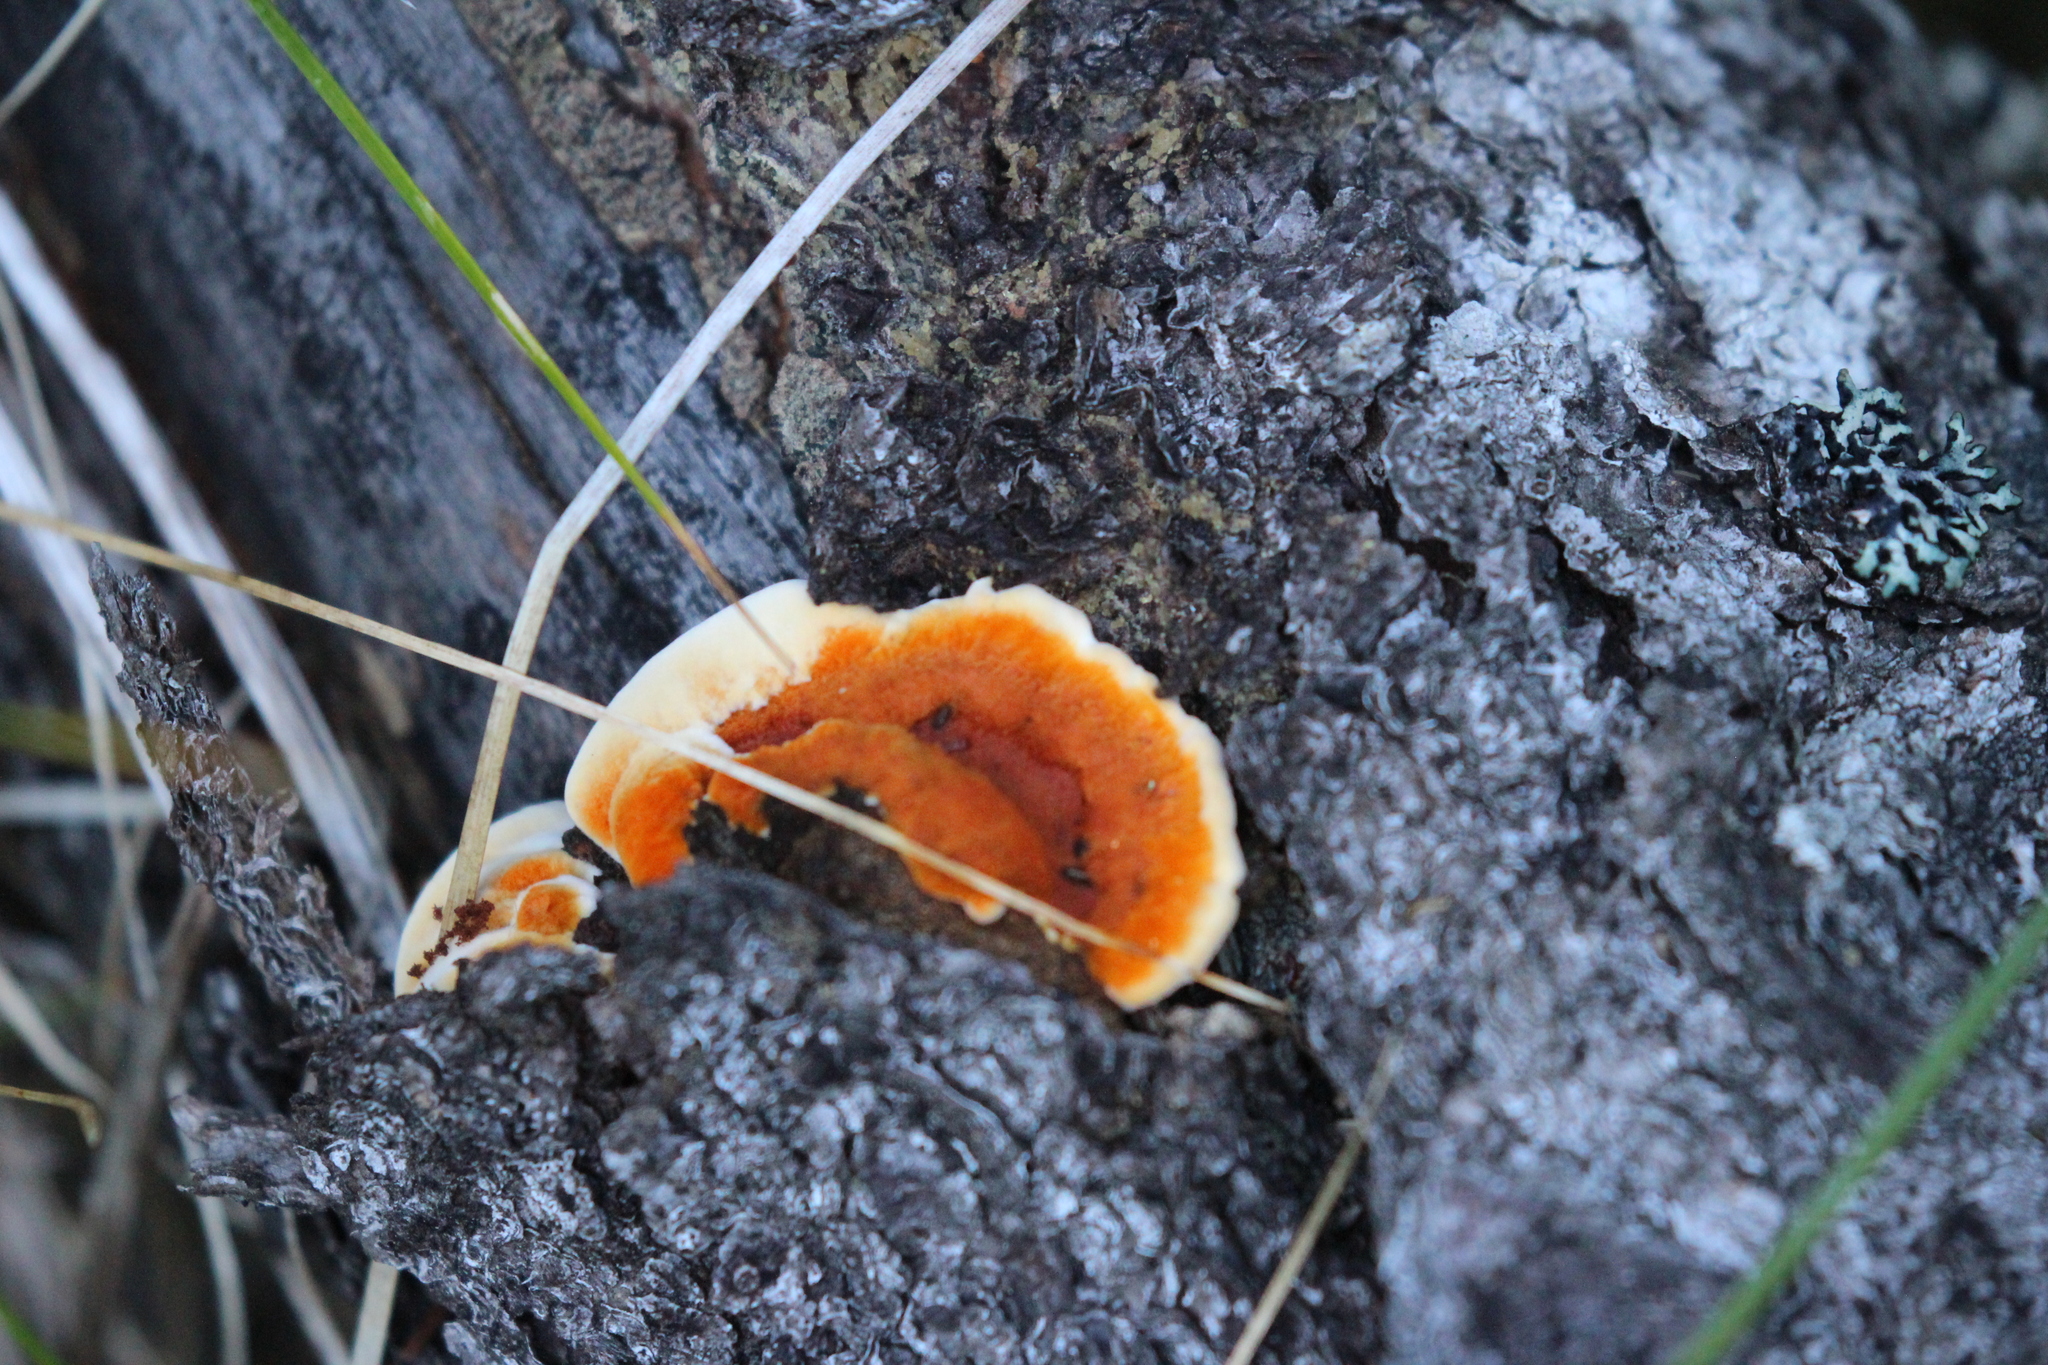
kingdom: Fungi
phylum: Basidiomycota
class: Agaricomycetes
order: Gloeophyllales
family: Gloeophyllaceae
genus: Gloeophyllum
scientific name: Gloeophyllum sepiarium
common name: Conifer mazegill
